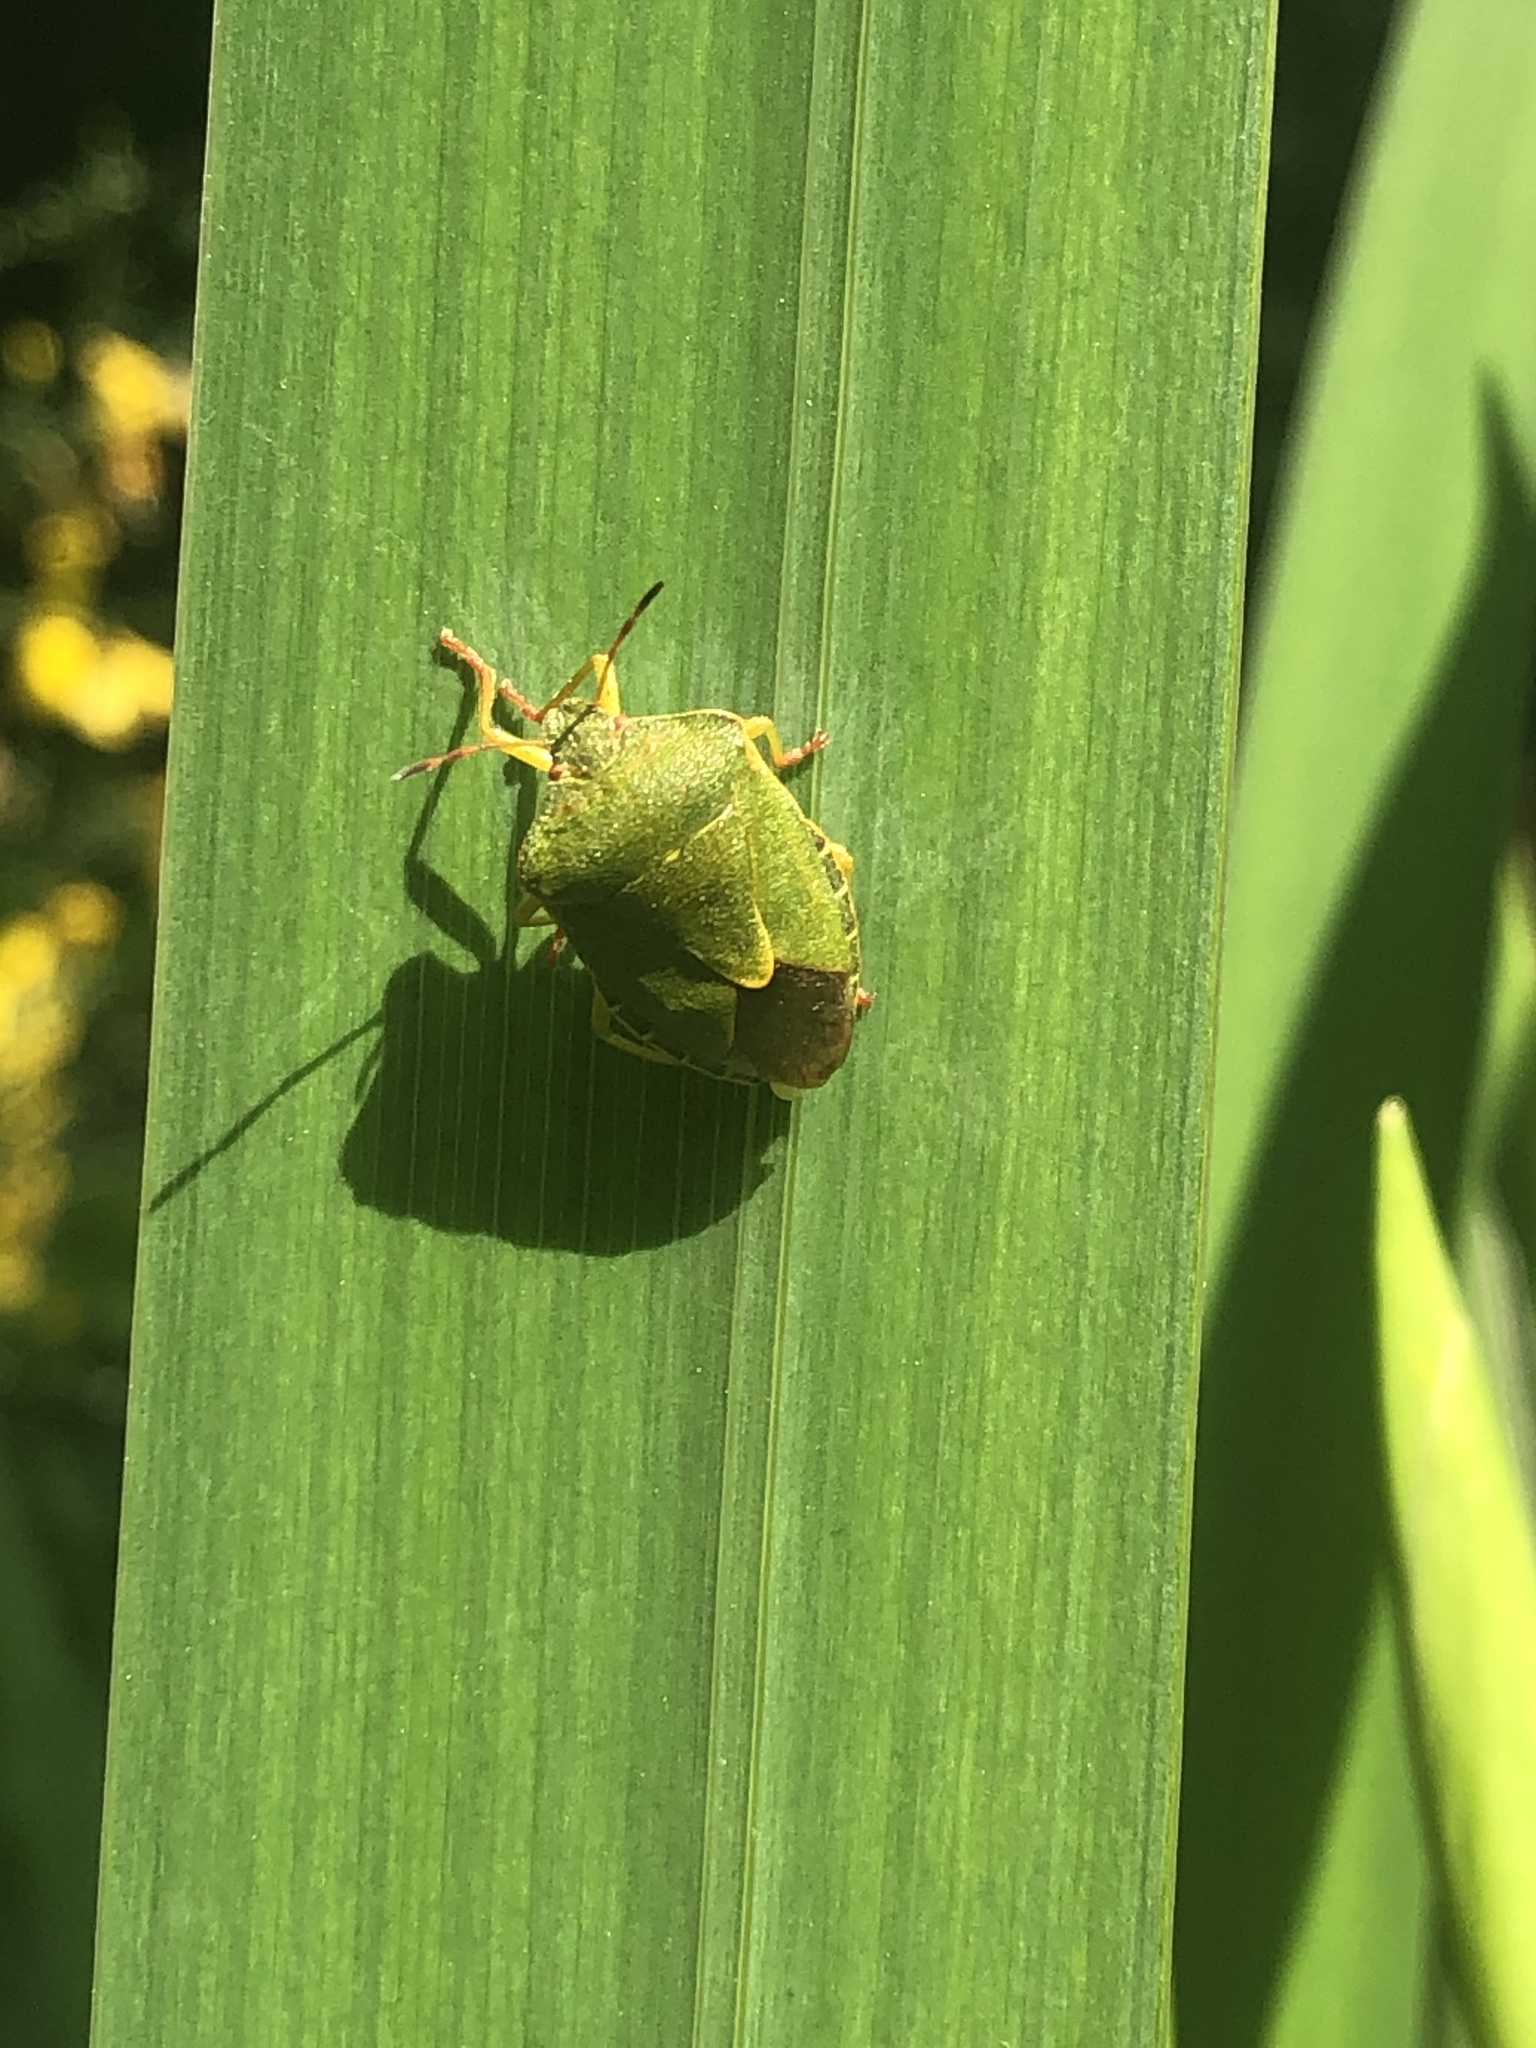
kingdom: Animalia
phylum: Arthropoda
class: Insecta
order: Hemiptera
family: Pentatomidae
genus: Palomena
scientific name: Palomena prasina
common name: Green shieldbug
